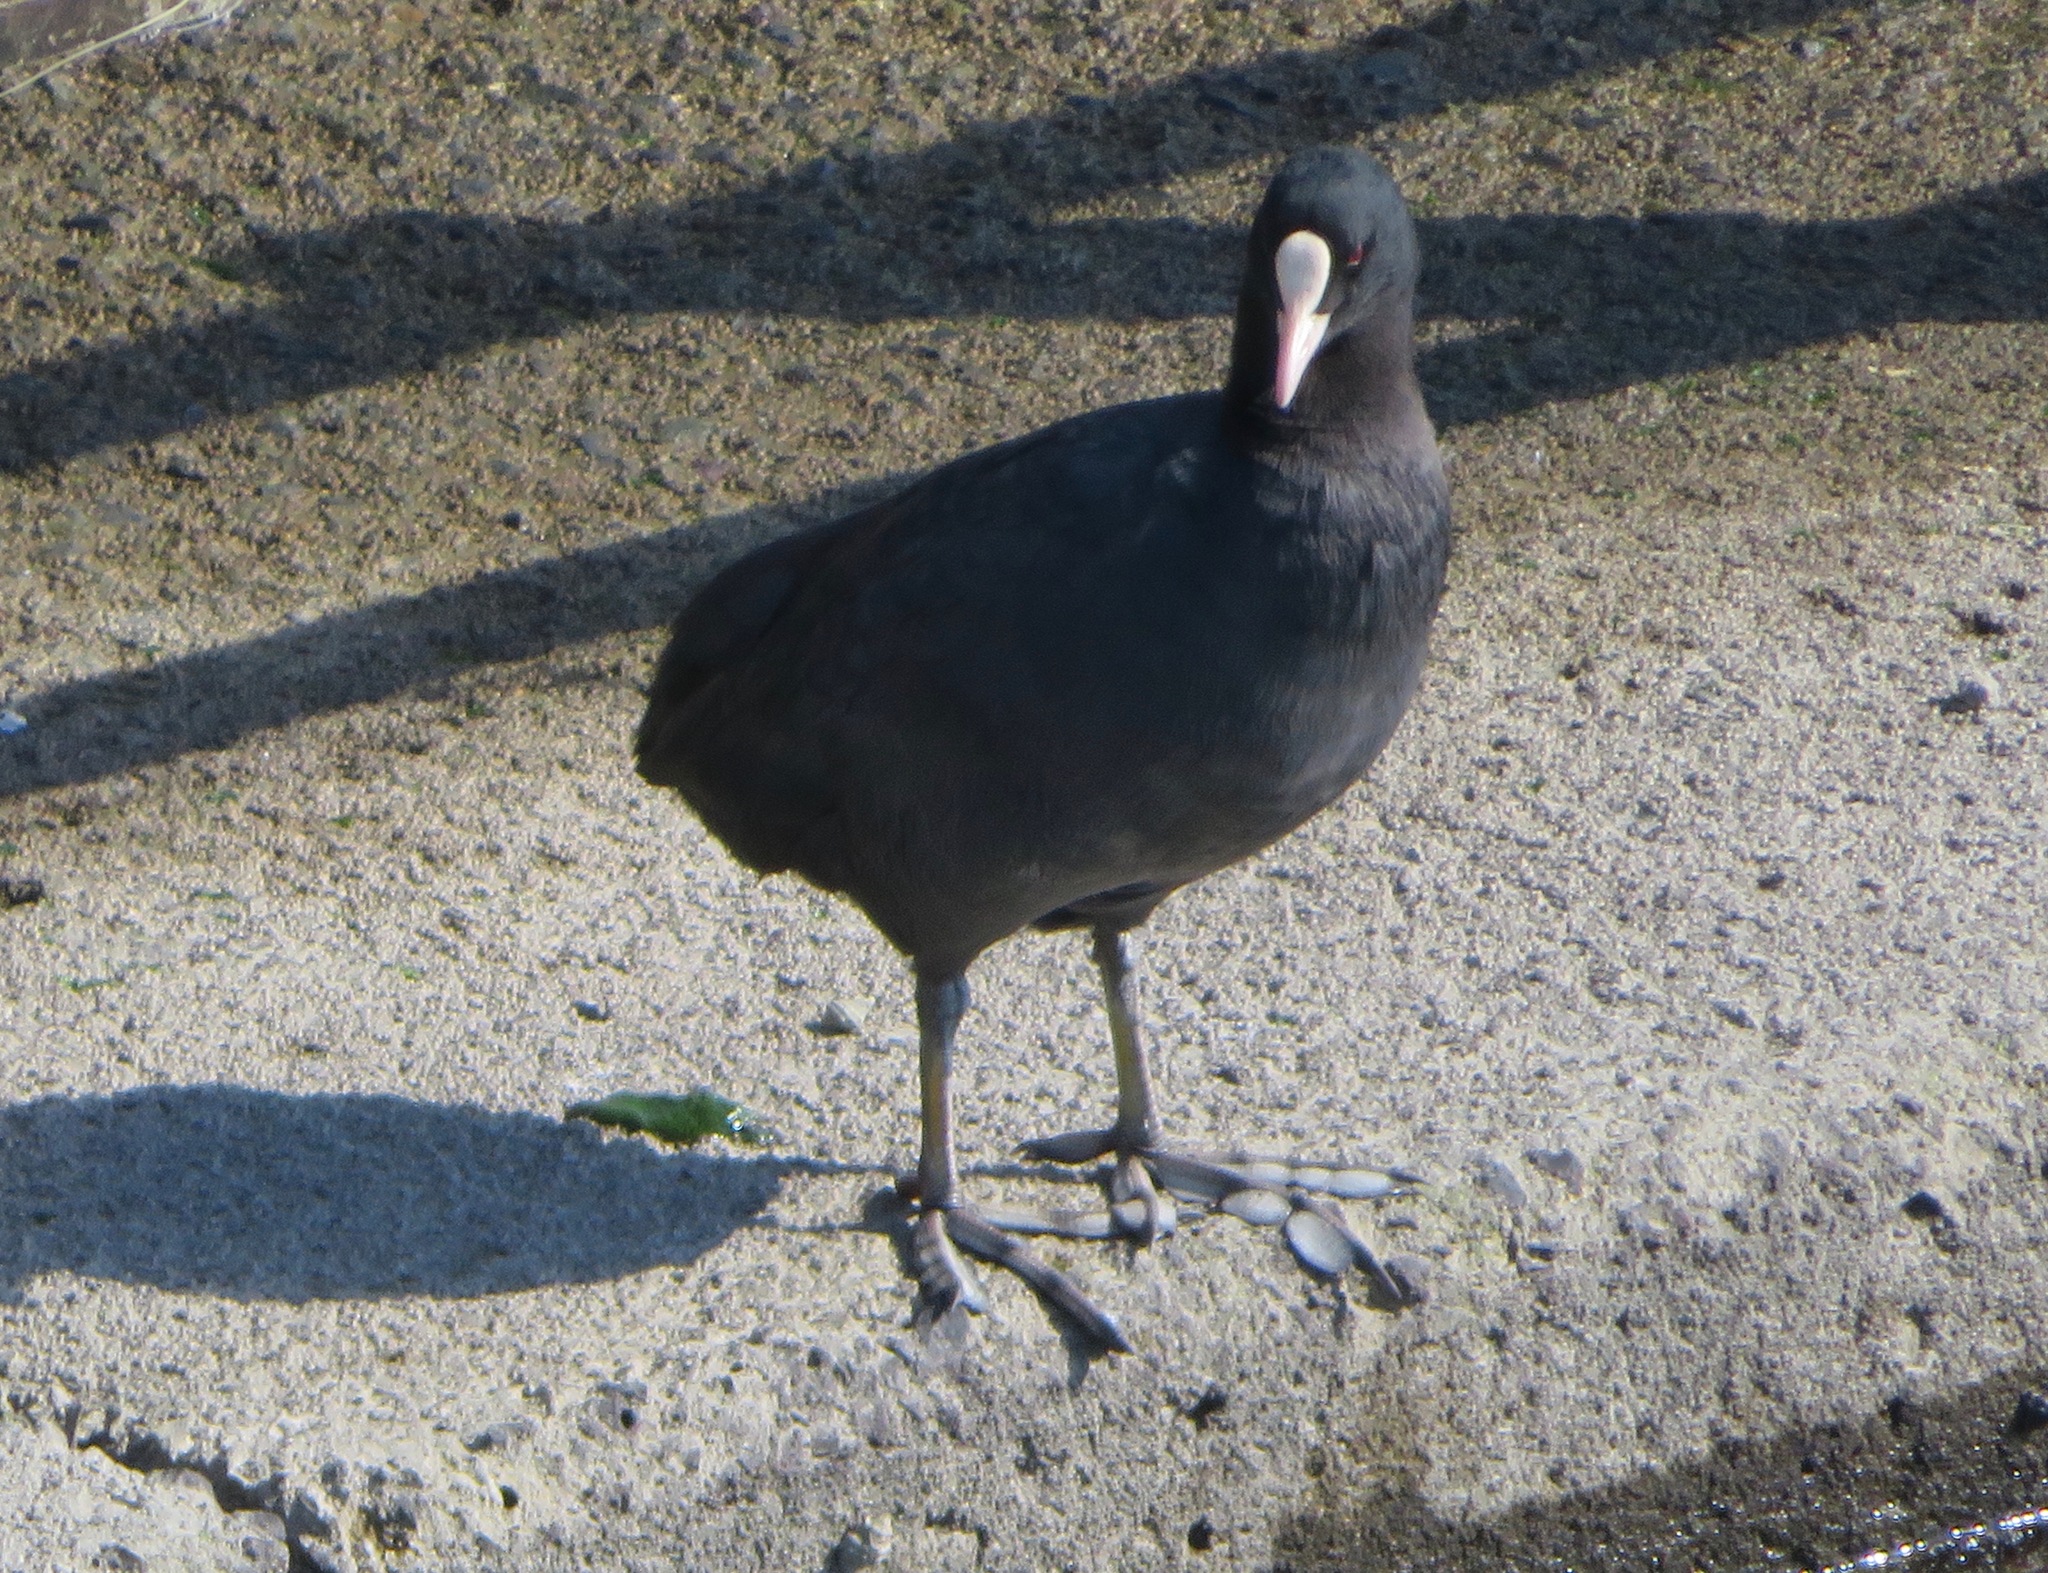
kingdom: Animalia
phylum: Chordata
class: Aves
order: Gruiformes
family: Rallidae
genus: Fulica
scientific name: Fulica atra
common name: Eurasian coot
